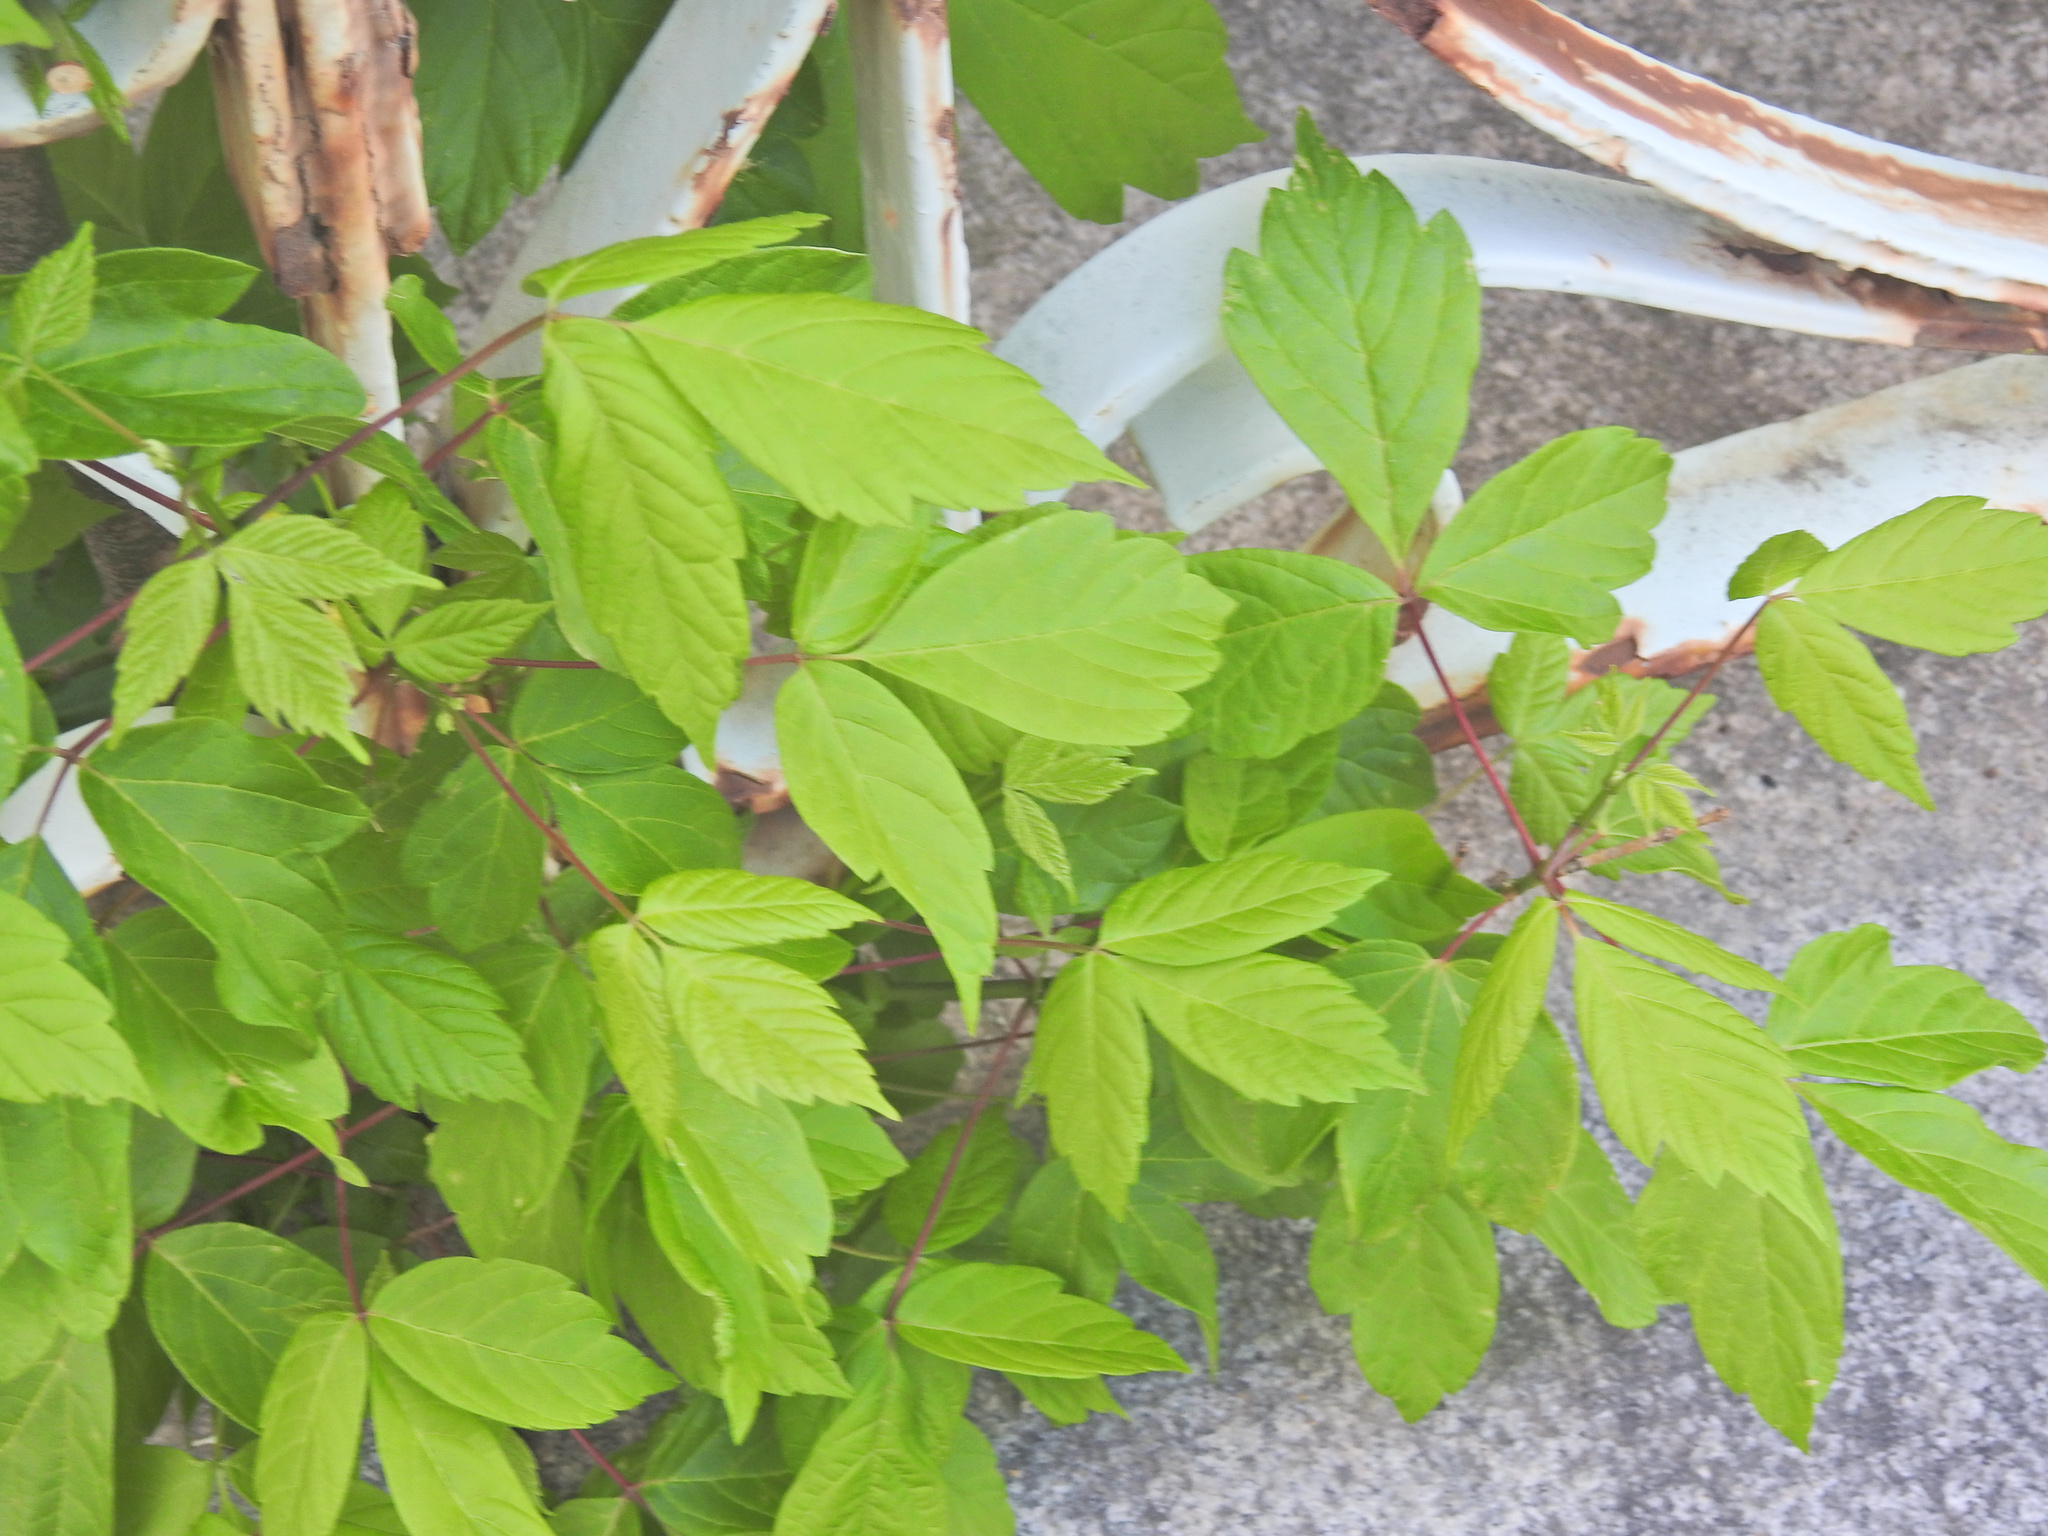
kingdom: Plantae
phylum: Tracheophyta
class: Magnoliopsida
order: Sapindales
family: Sapindaceae
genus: Acer
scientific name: Acer negundo
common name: Ashleaf maple
